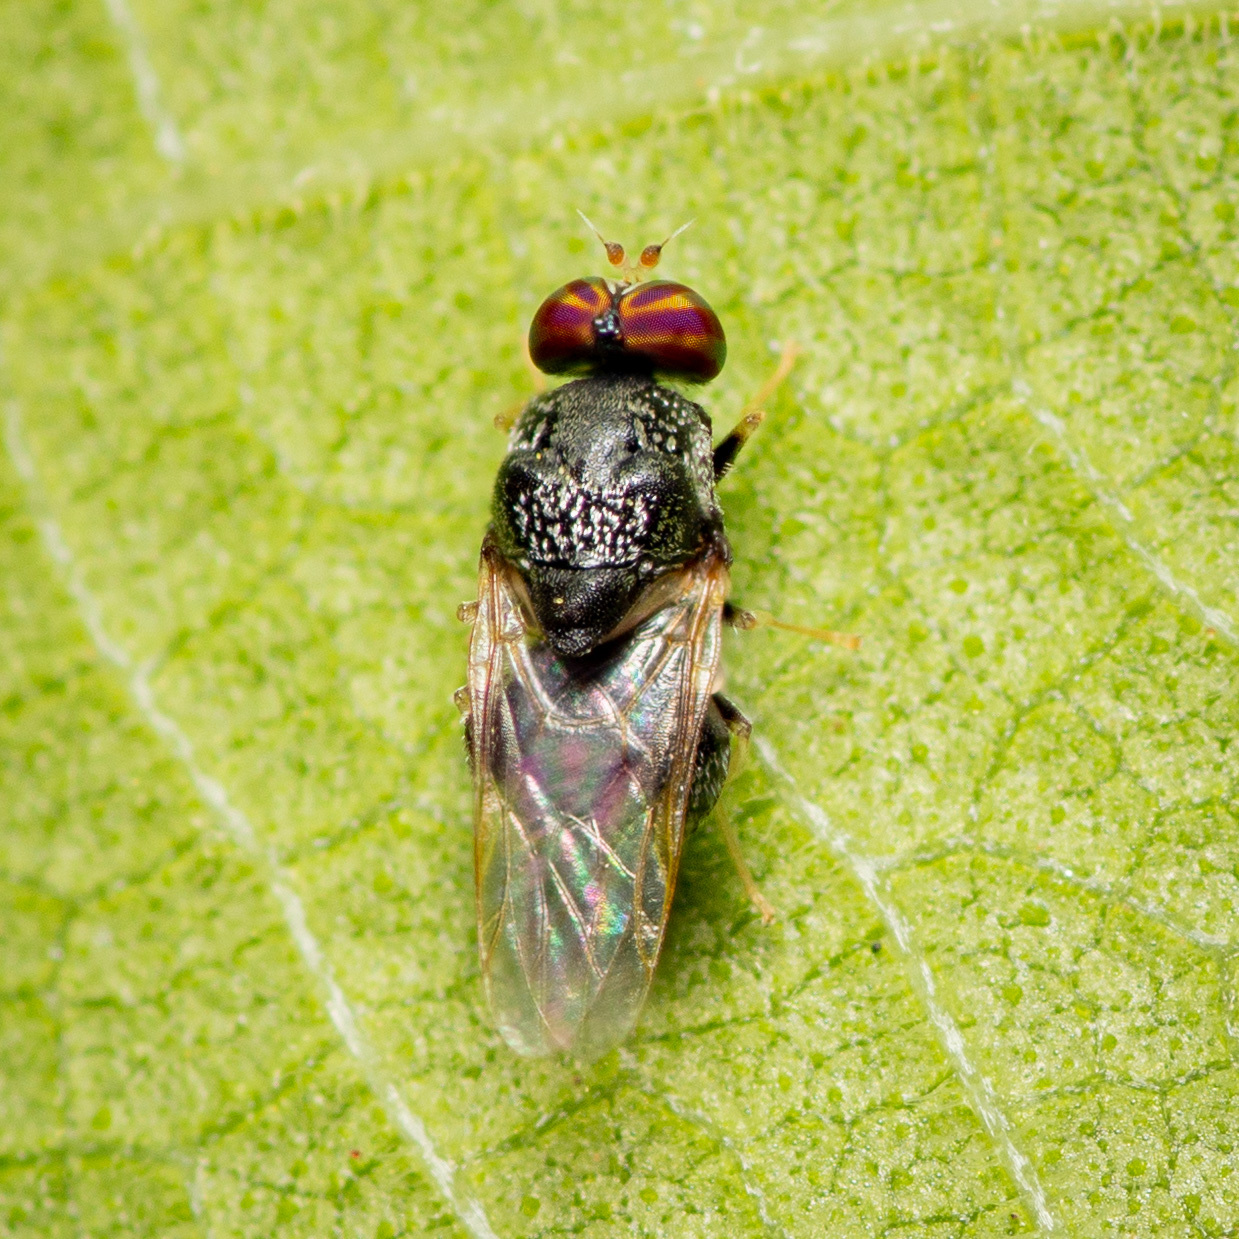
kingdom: Animalia
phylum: Arthropoda
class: Insecta
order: Diptera
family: Stratiomyidae
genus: Gowdeyana
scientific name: Gowdeyana punctifera
